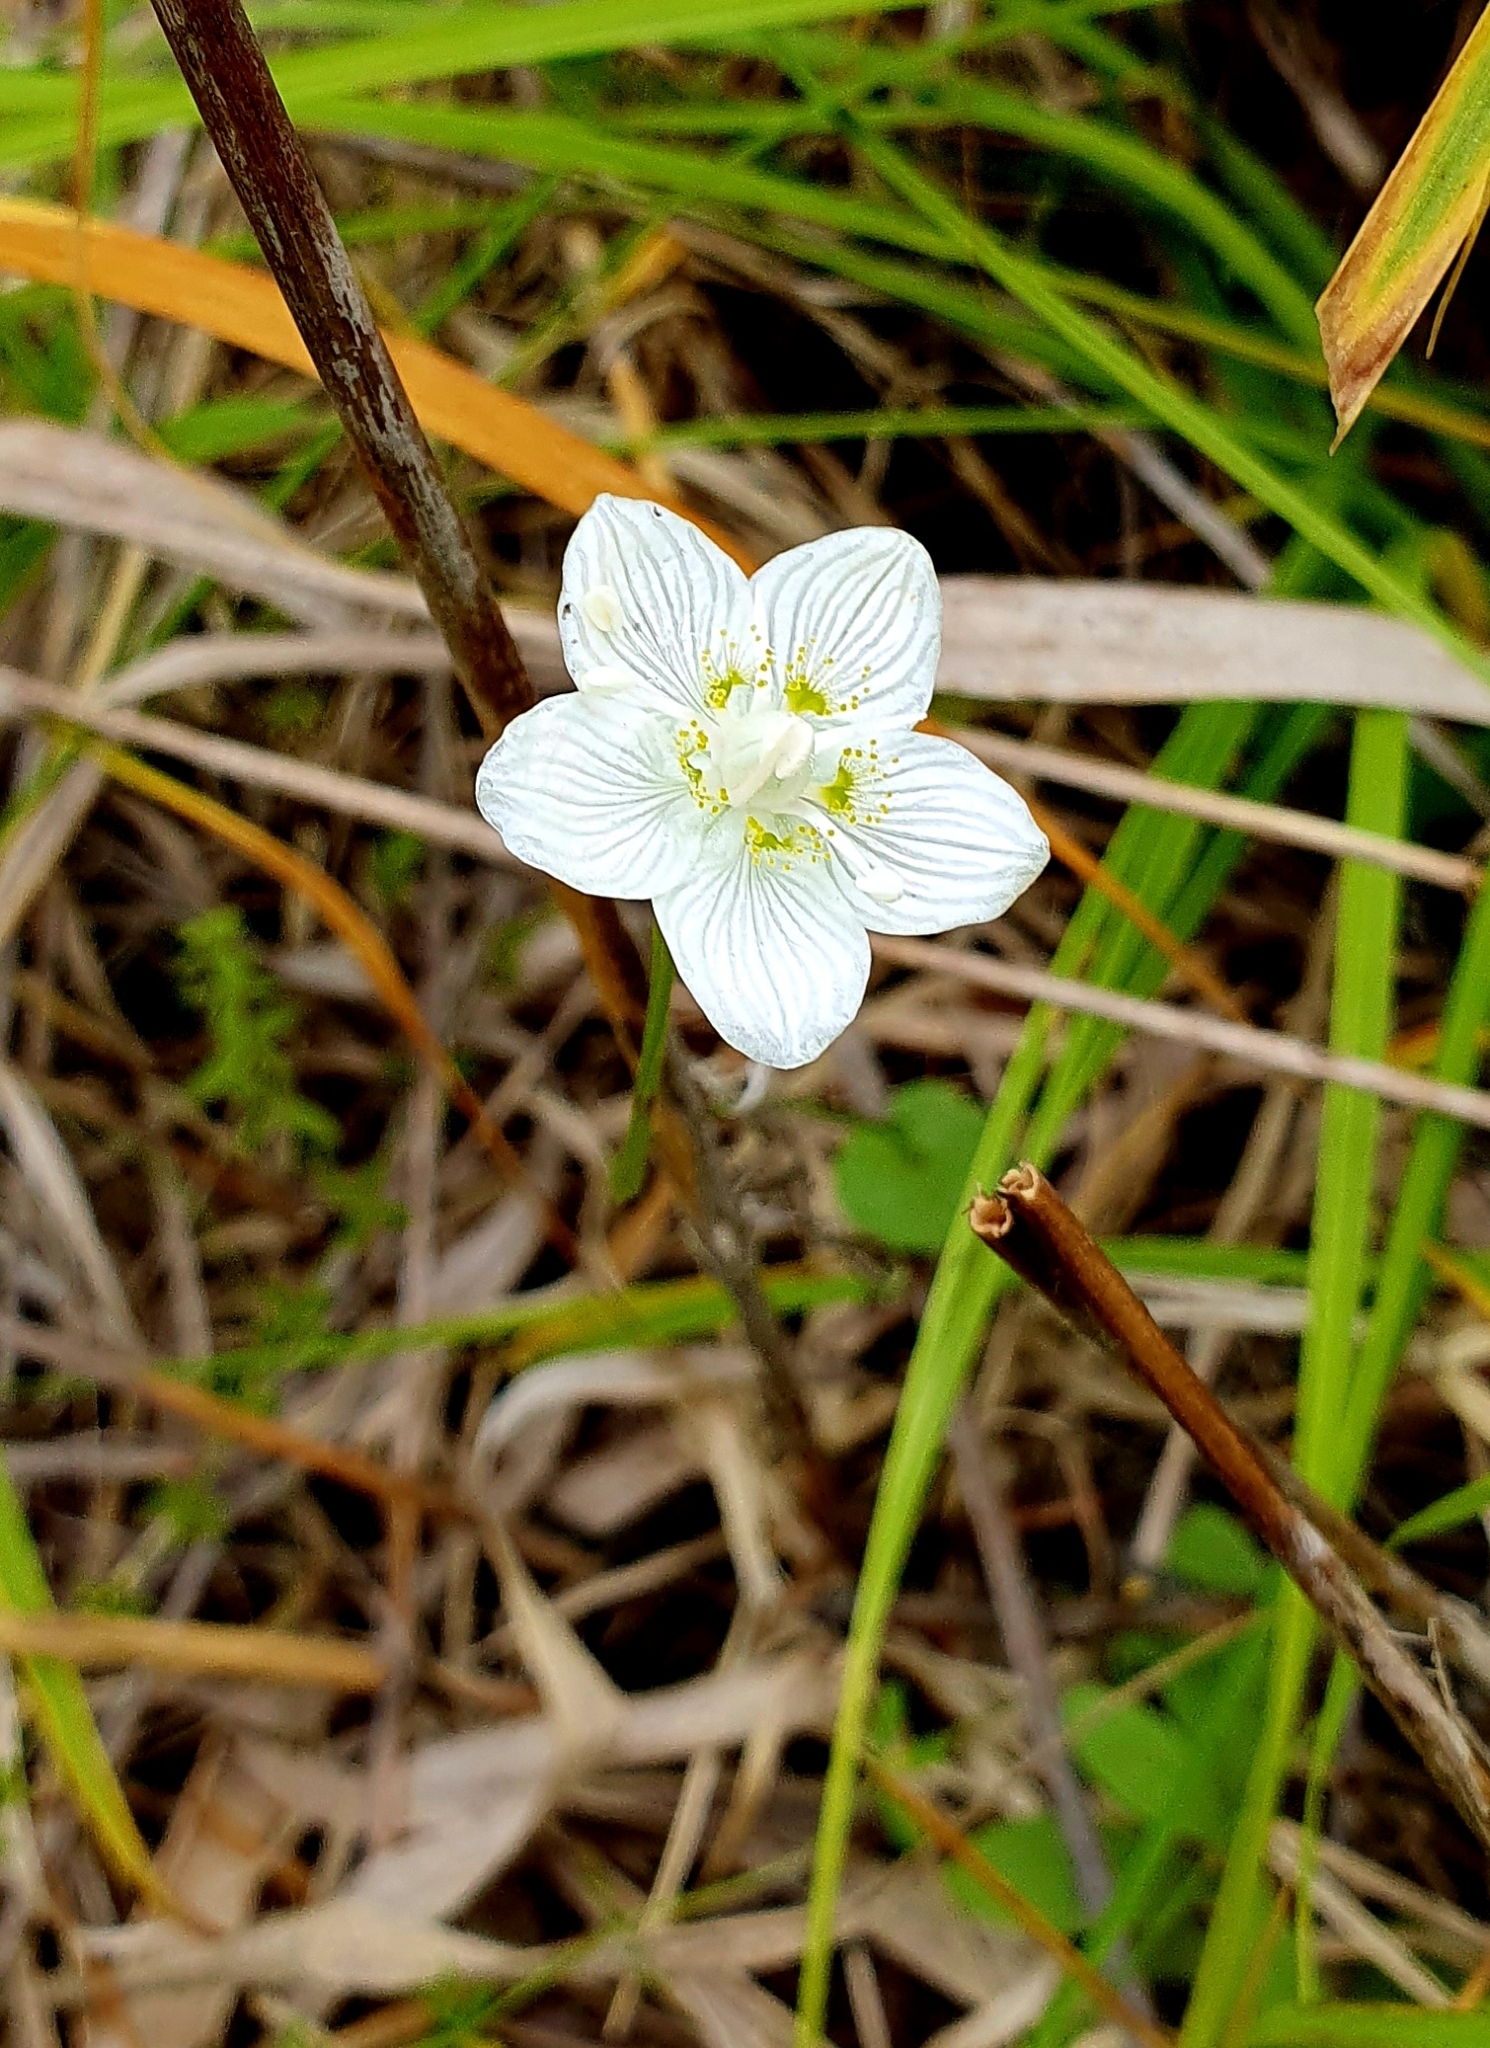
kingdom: Plantae
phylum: Tracheophyta
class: Magnoliopsida
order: Celastrales
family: Parnassiaceae
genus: Parnassia
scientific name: Parnassia palustris
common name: Grass-of-parnassus
